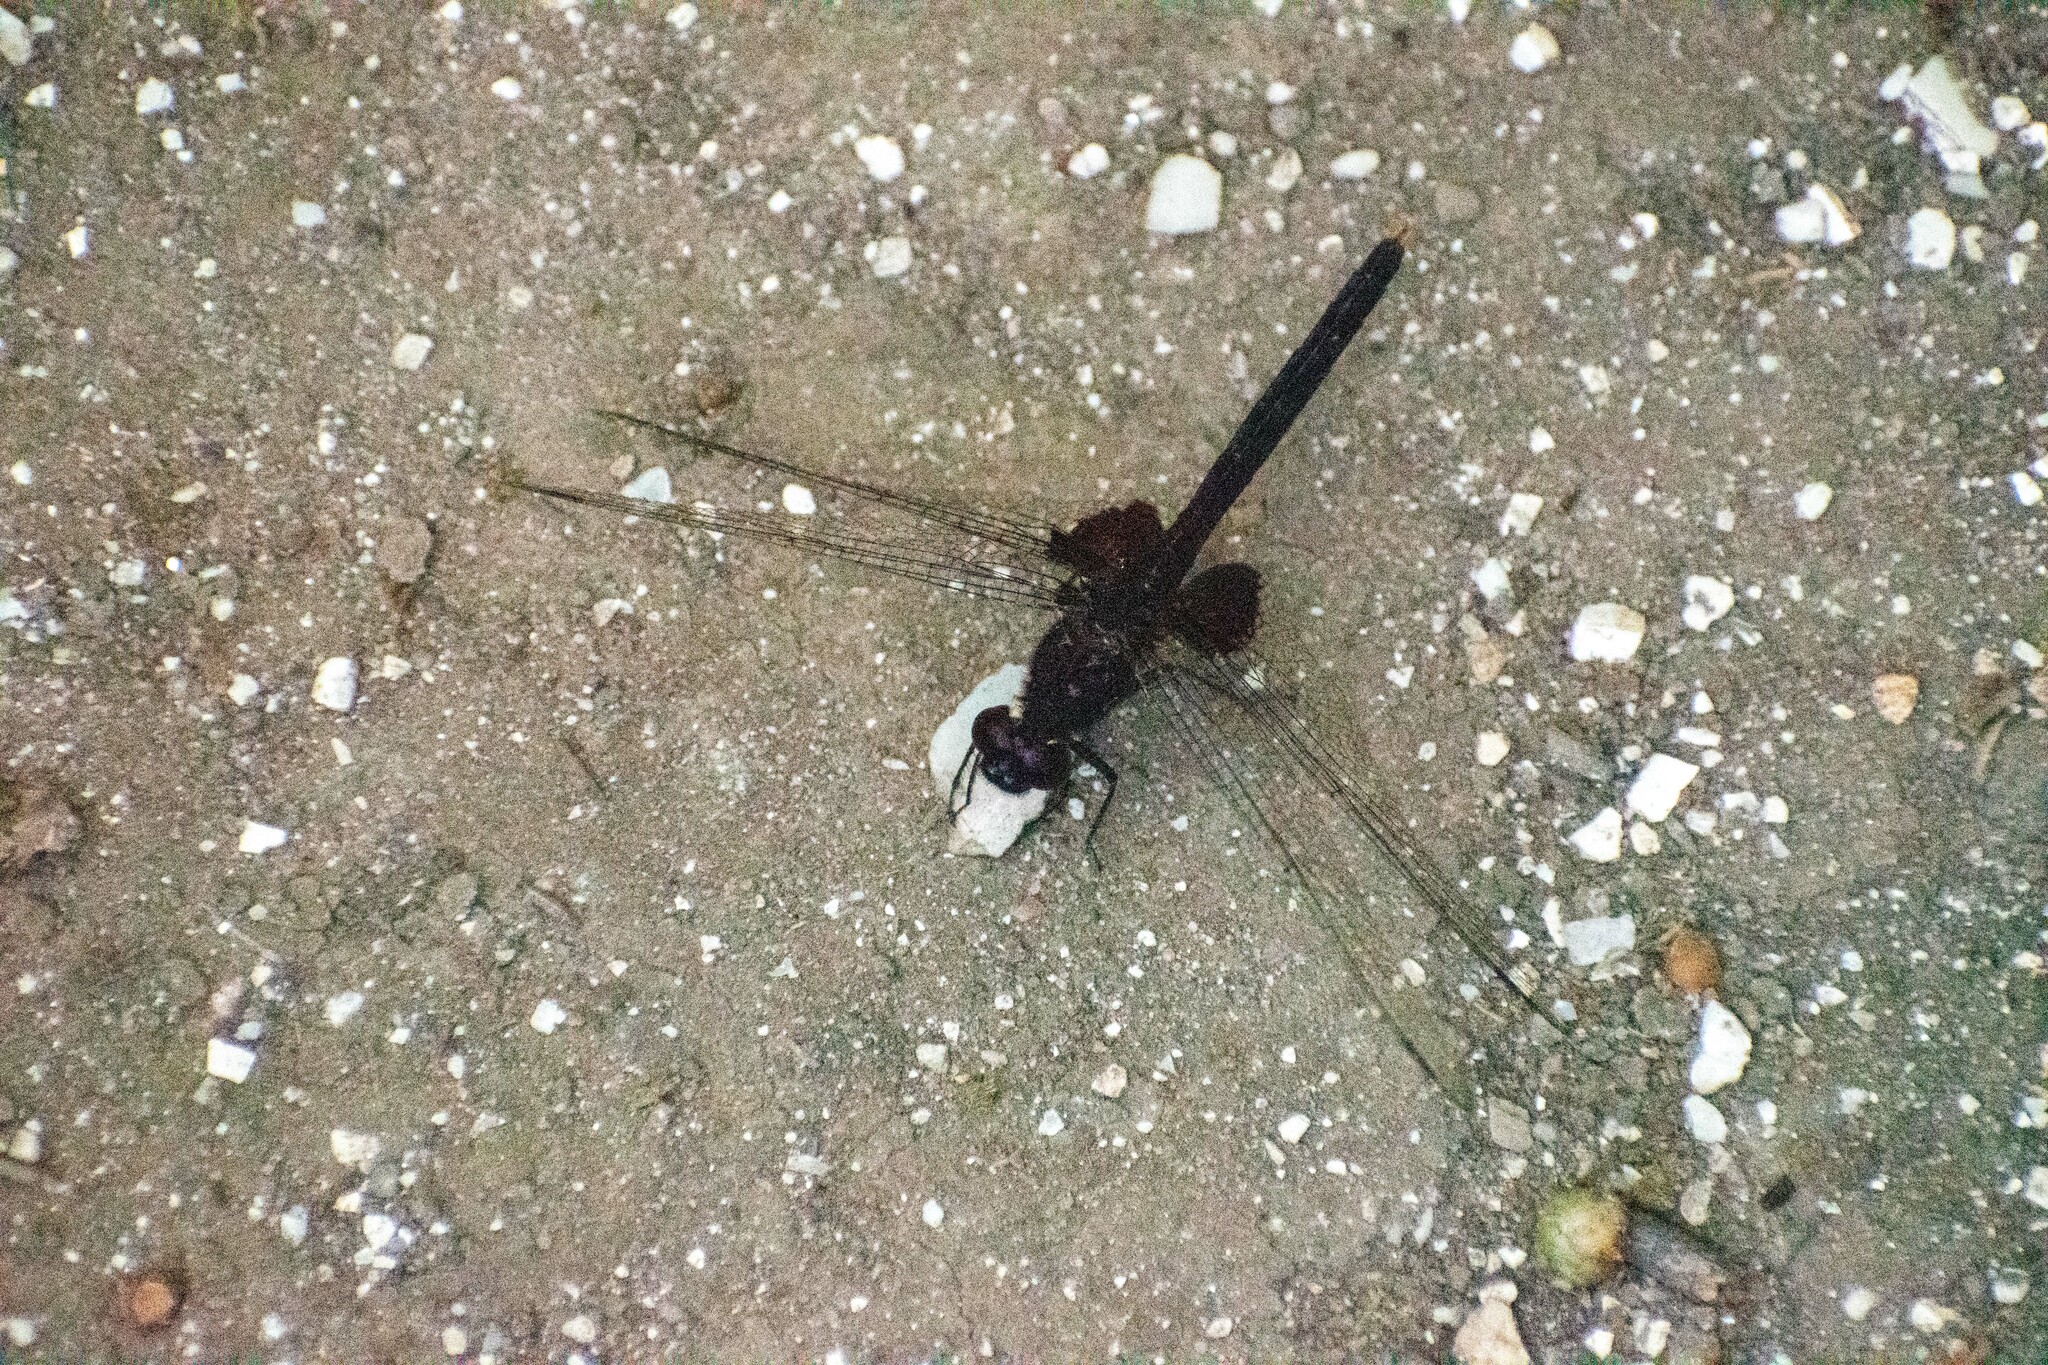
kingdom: Animalia
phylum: Arthropoda
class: Insecta
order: Odonata
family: Libellulidae
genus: Erythemis
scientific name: Erythemis attala
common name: Black pondhawk
